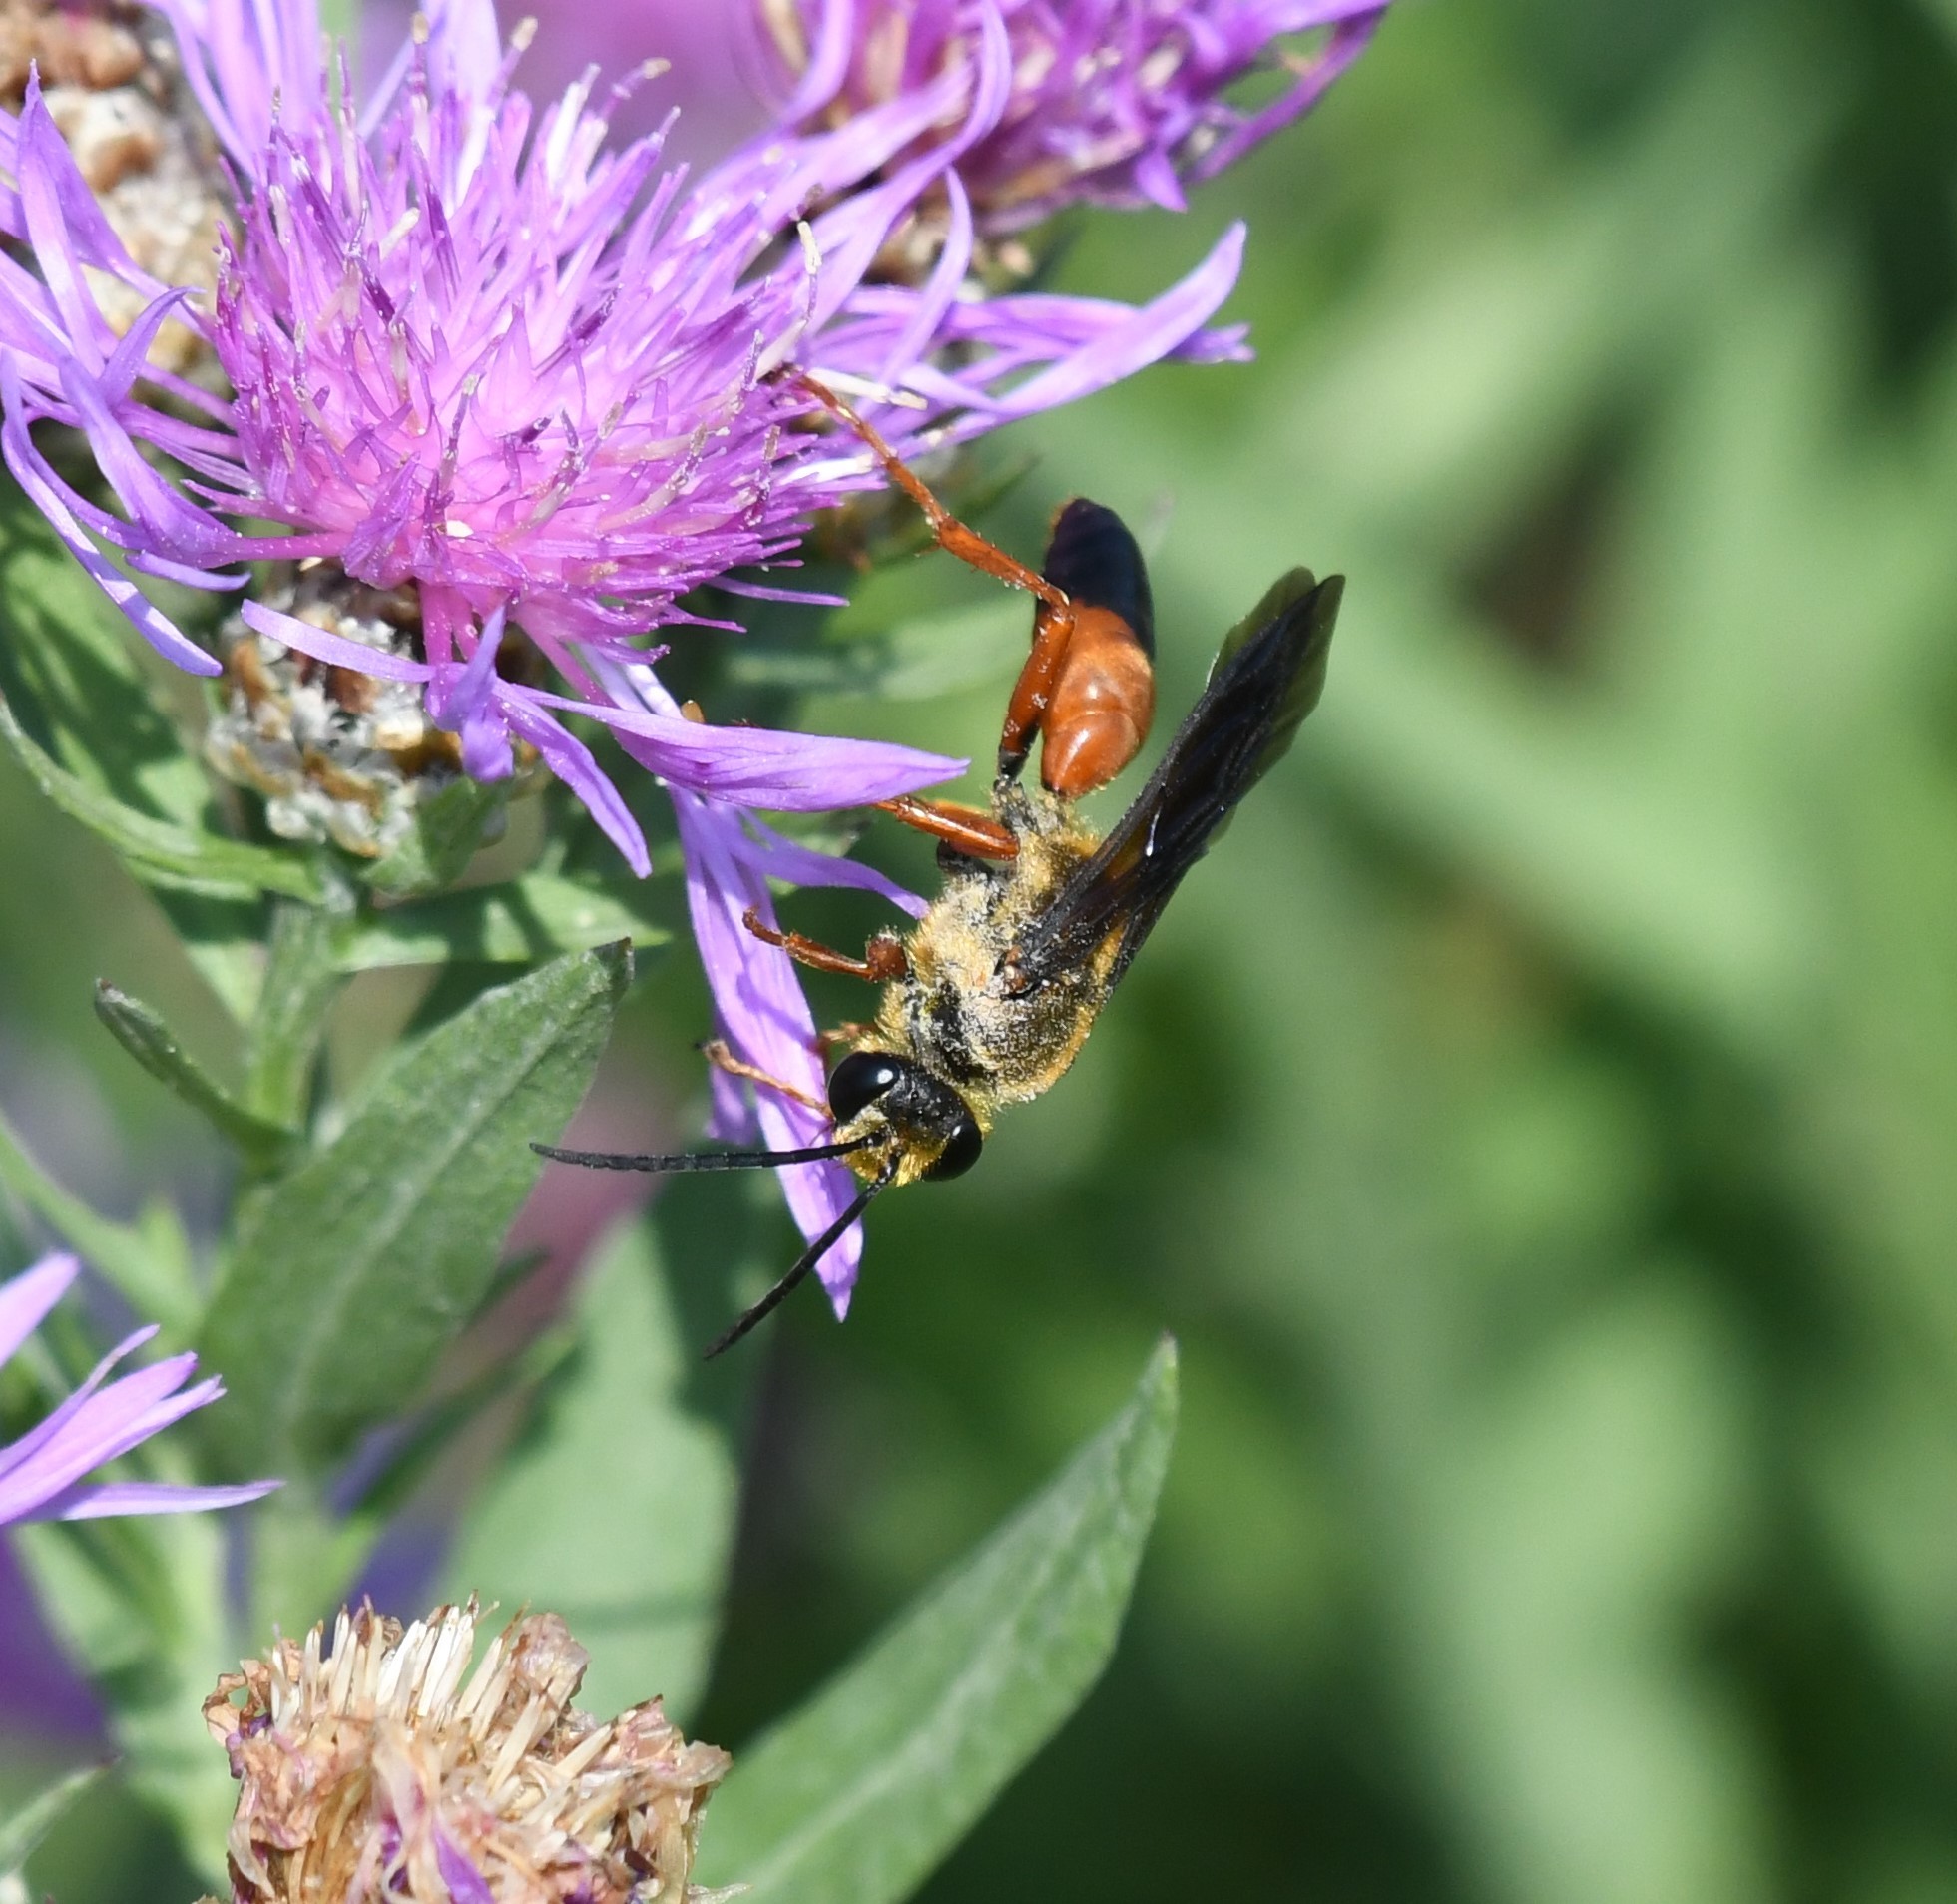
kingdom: Animalia
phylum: Arthropoda
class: Insecta
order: Hymenoptera
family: Sphecidae
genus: Sphex
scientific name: Sphex ichneumoneus
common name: Great golden digger wasp
